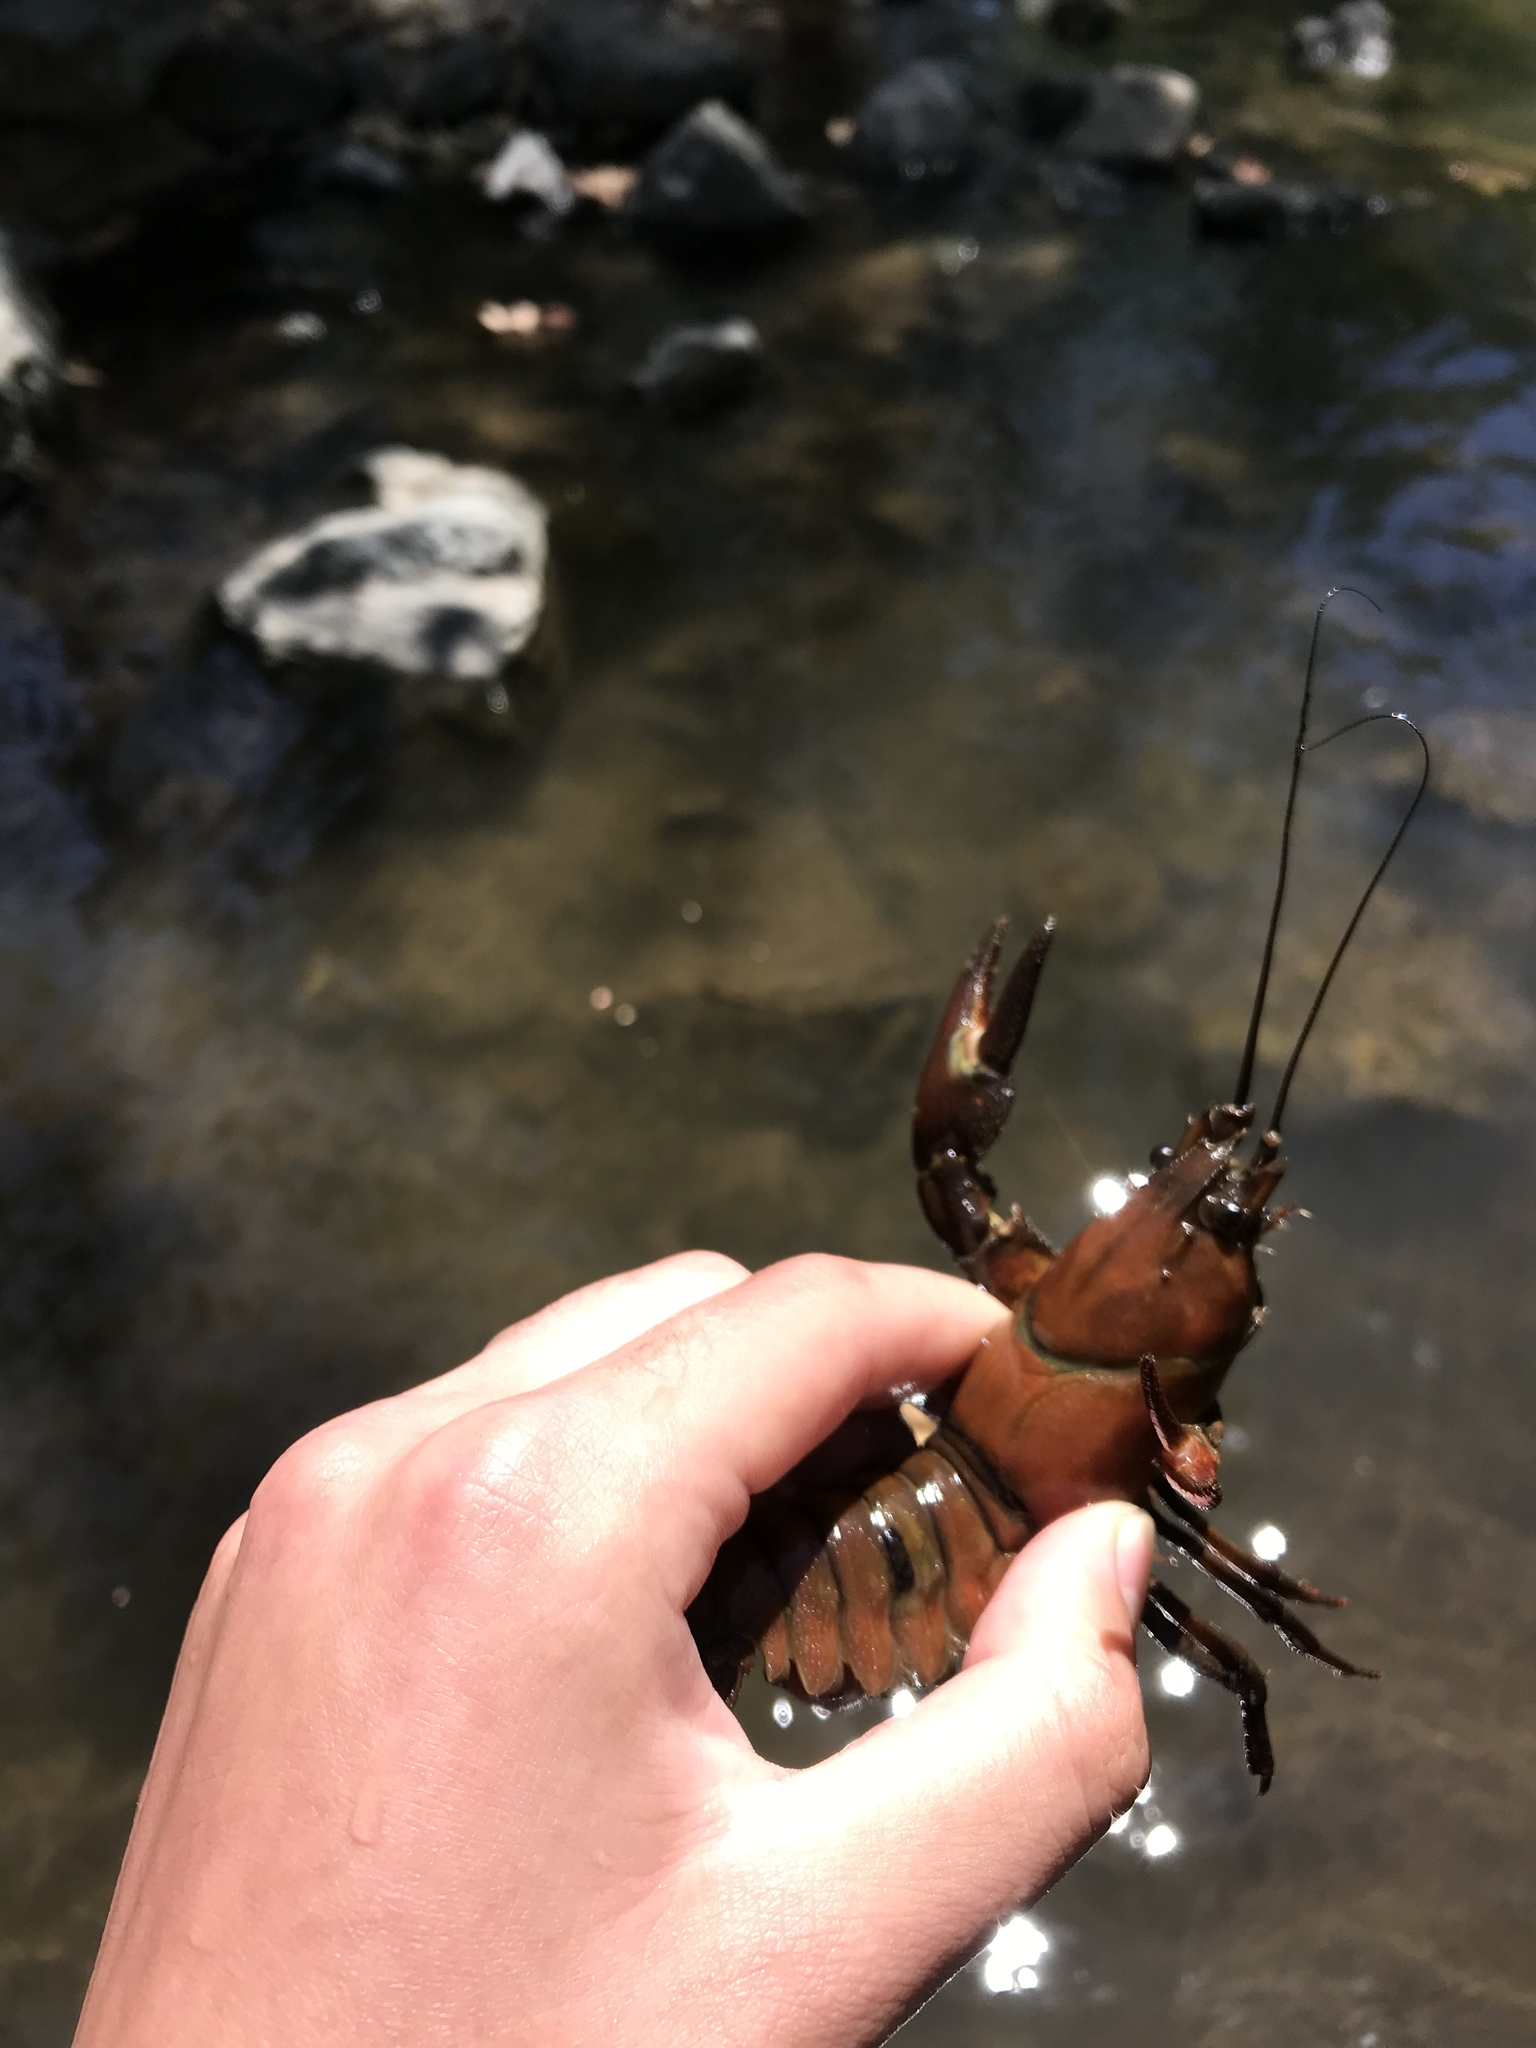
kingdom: Animalia
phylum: Arthropoda
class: Malacostraca
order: Decapoda
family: Astacidae
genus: Pacifastacus
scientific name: Pacifastacus leniusculus
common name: Signal crayfish
